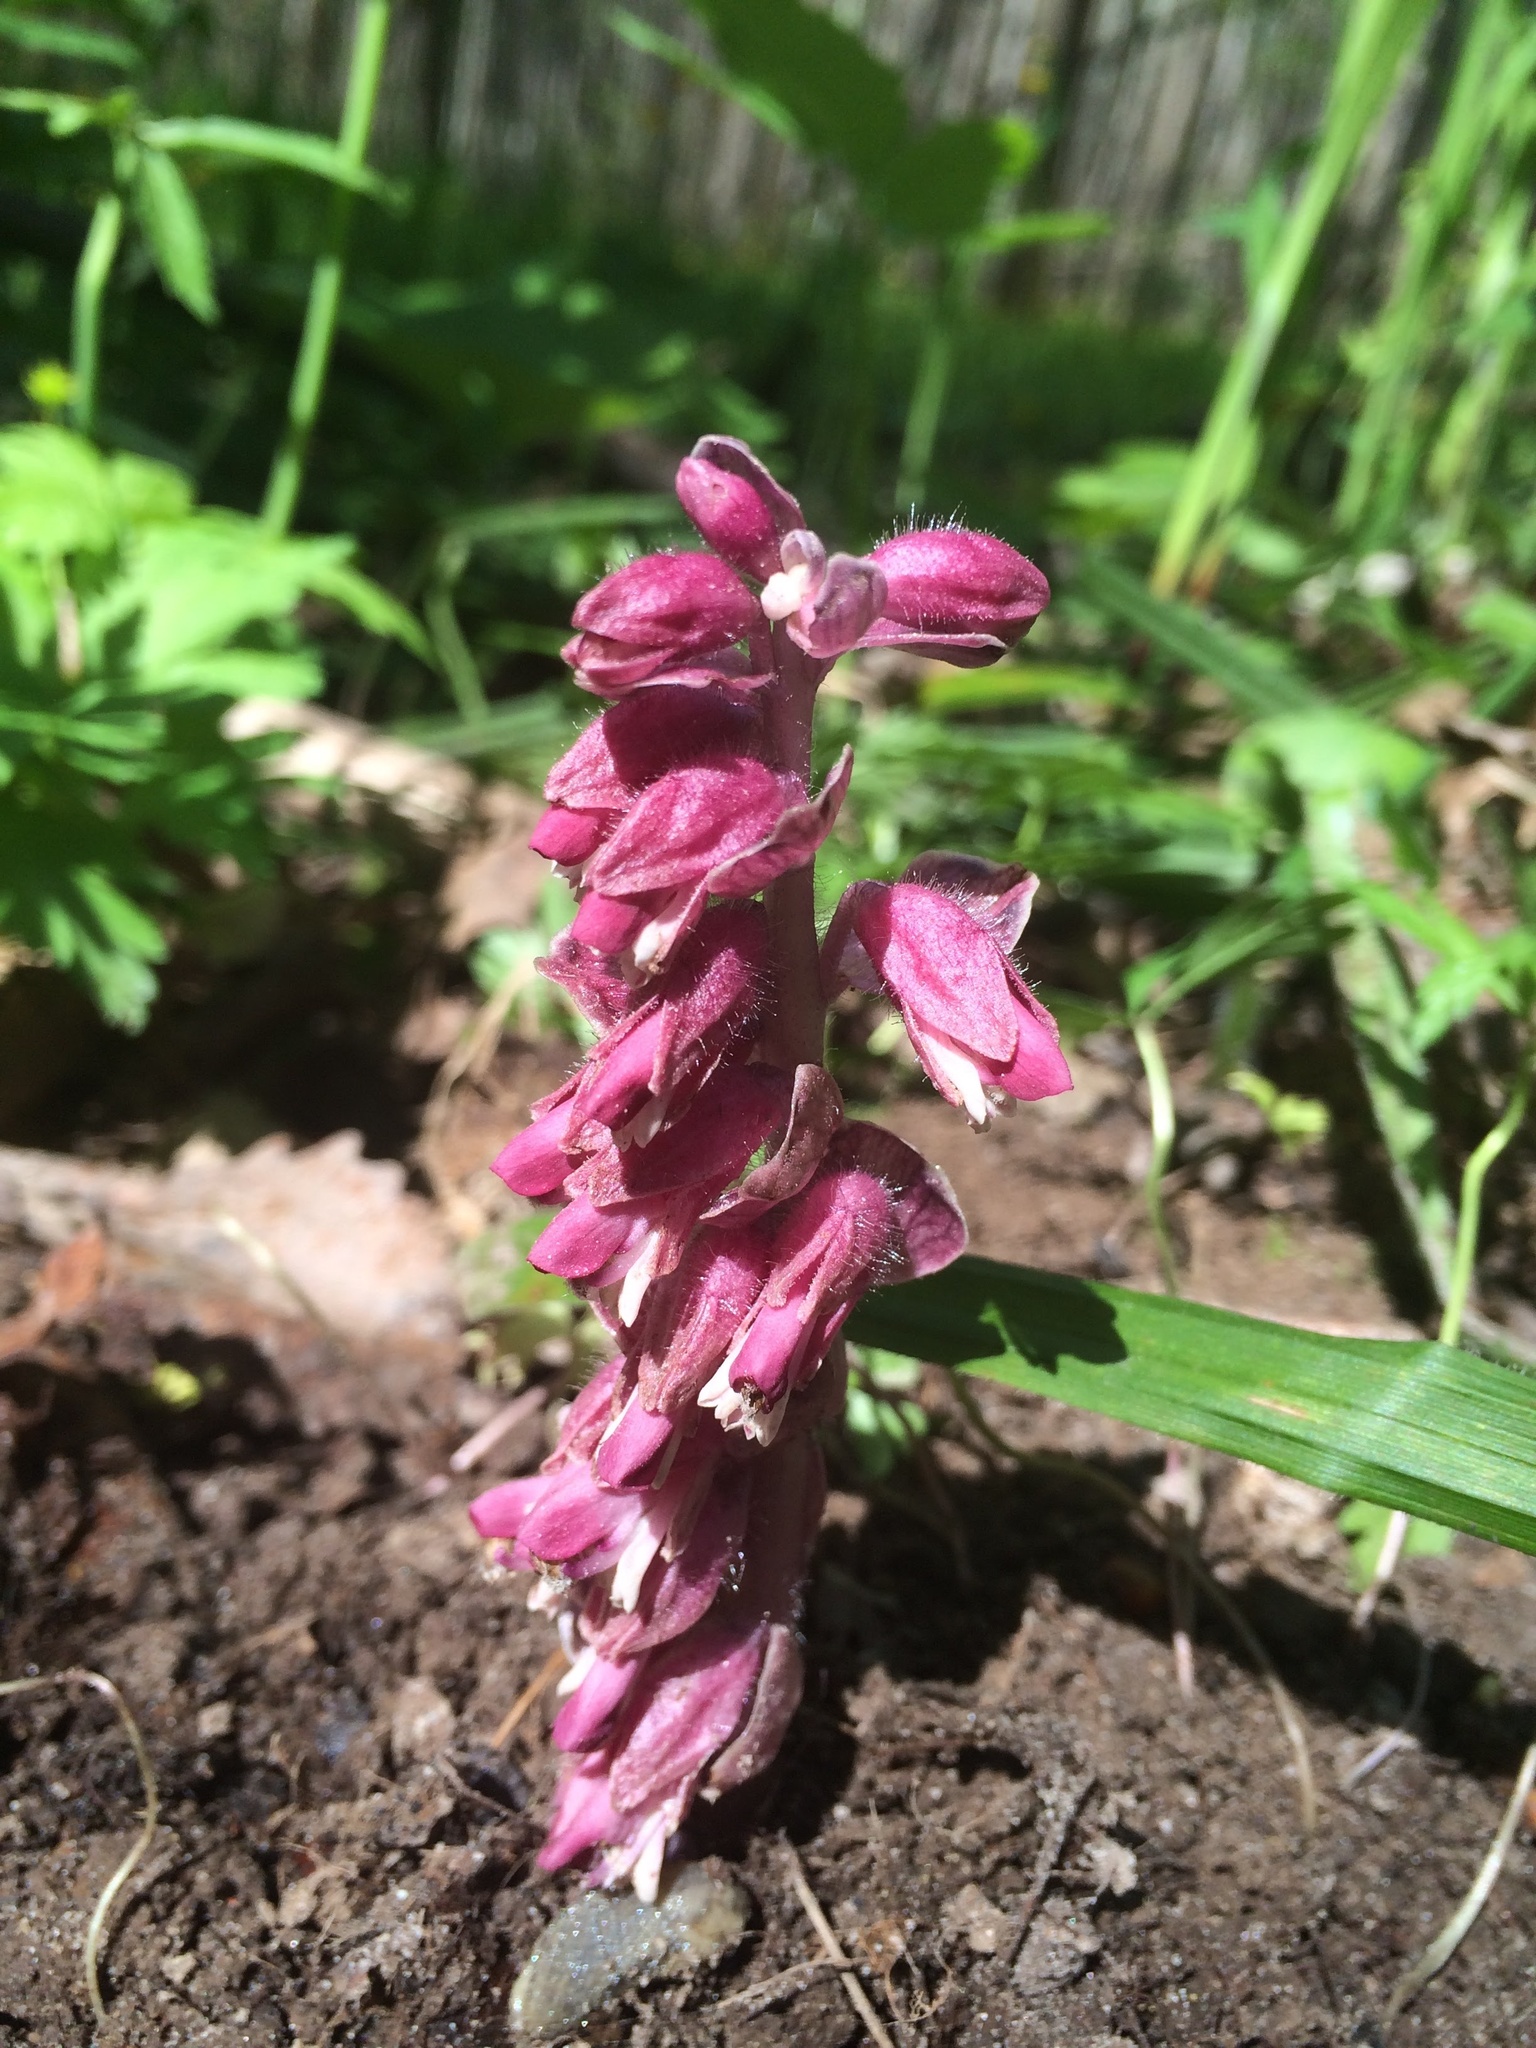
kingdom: Plantae
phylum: Tracheophyta
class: Magnoliopsida
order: Lamiales
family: Orobanchaceae
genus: Lathraea
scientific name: Lathraea squamaria
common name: Toothwort
